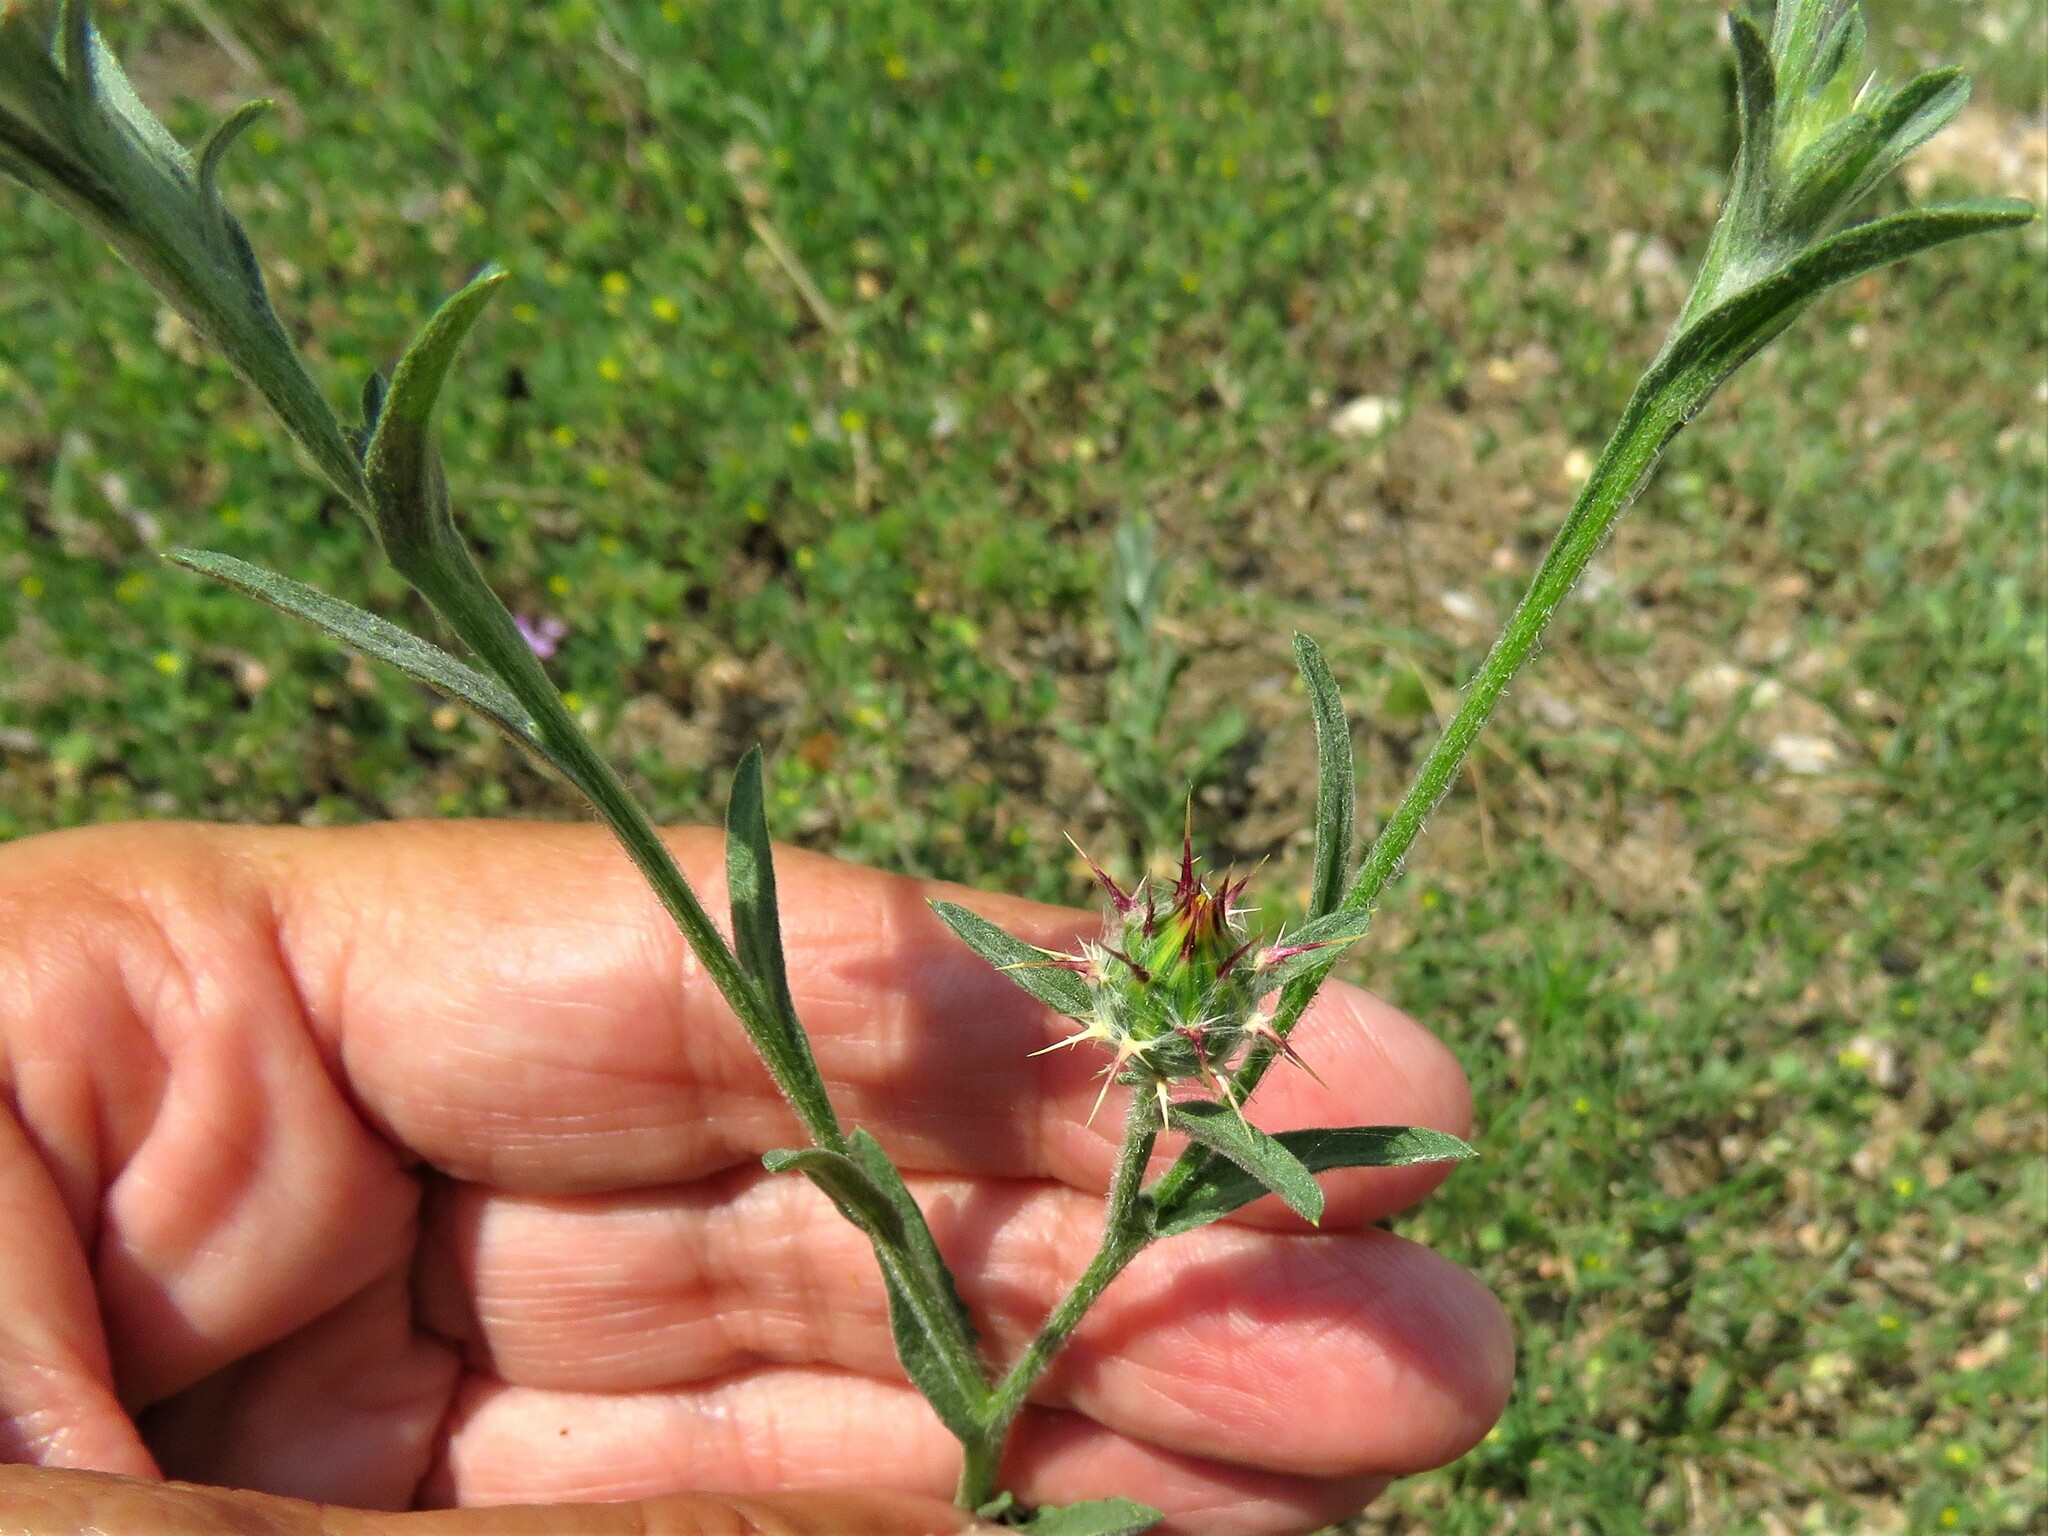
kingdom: Plantae
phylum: Tracheophyta
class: Magnoliopsida
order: Asterales
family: Asteraceae
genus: Centaurea
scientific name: Centaurea melitensis
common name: Maltese star-thistle
